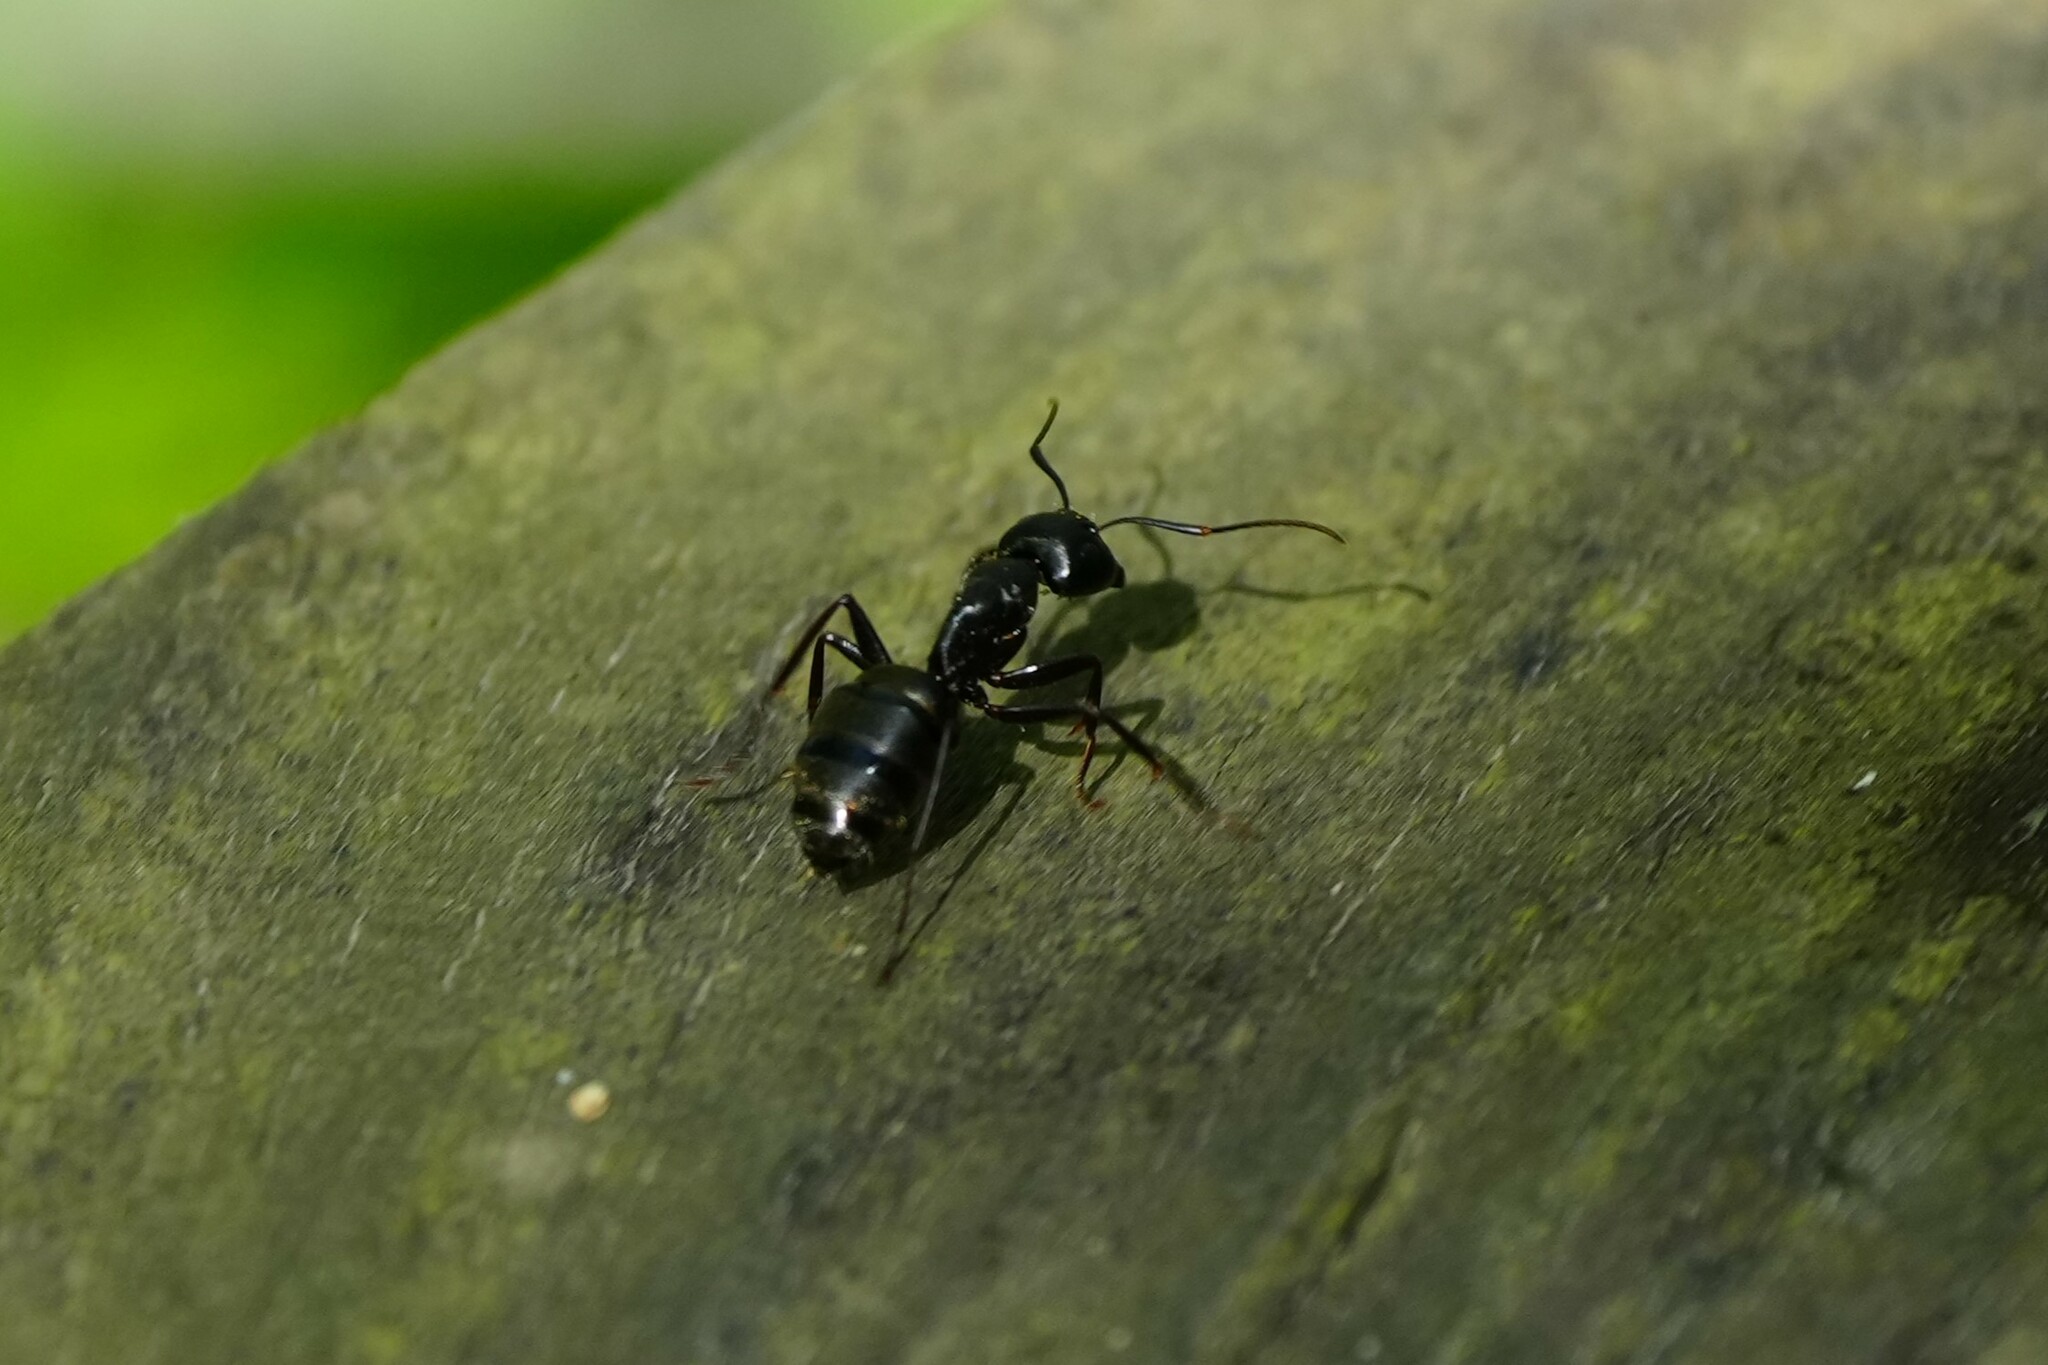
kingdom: Animalia
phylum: Arthropoda
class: Insecta
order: Hymenoptera
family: Formicidae
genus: Camponotus
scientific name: Camponotus pennsylvanicus
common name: Black carpenter ant
